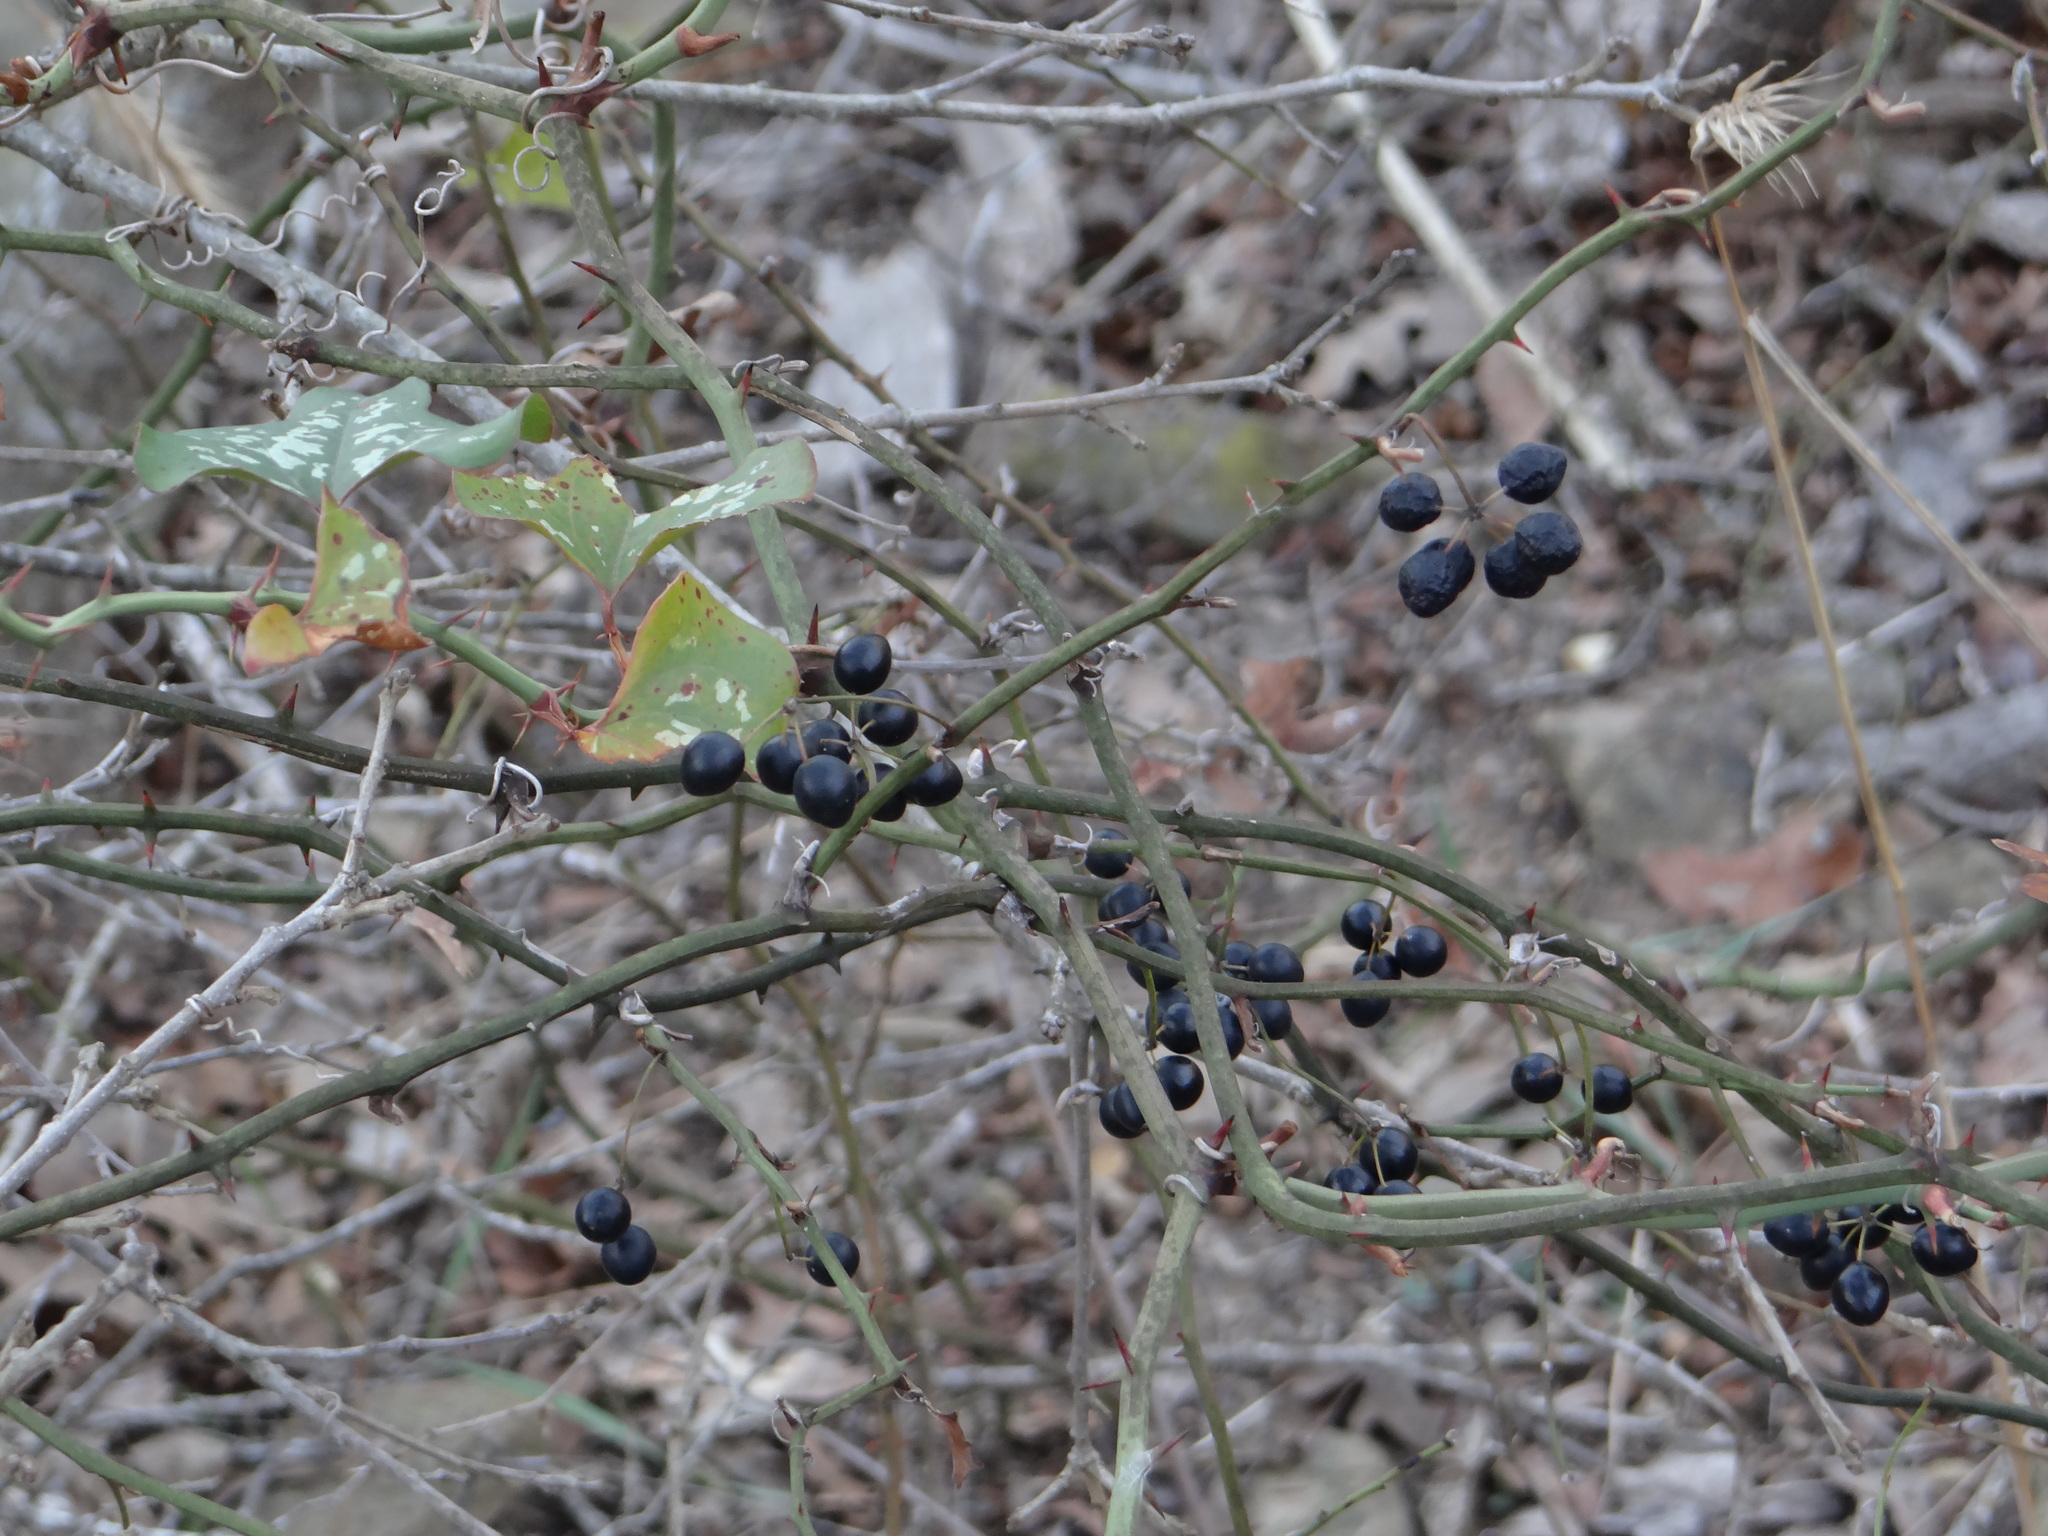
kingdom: Plantae
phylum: Tracheophyta
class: Liliopsida
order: Liliales
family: Smilacaceae
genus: Smilax
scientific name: Smilax bona-nox
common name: Catbrier
